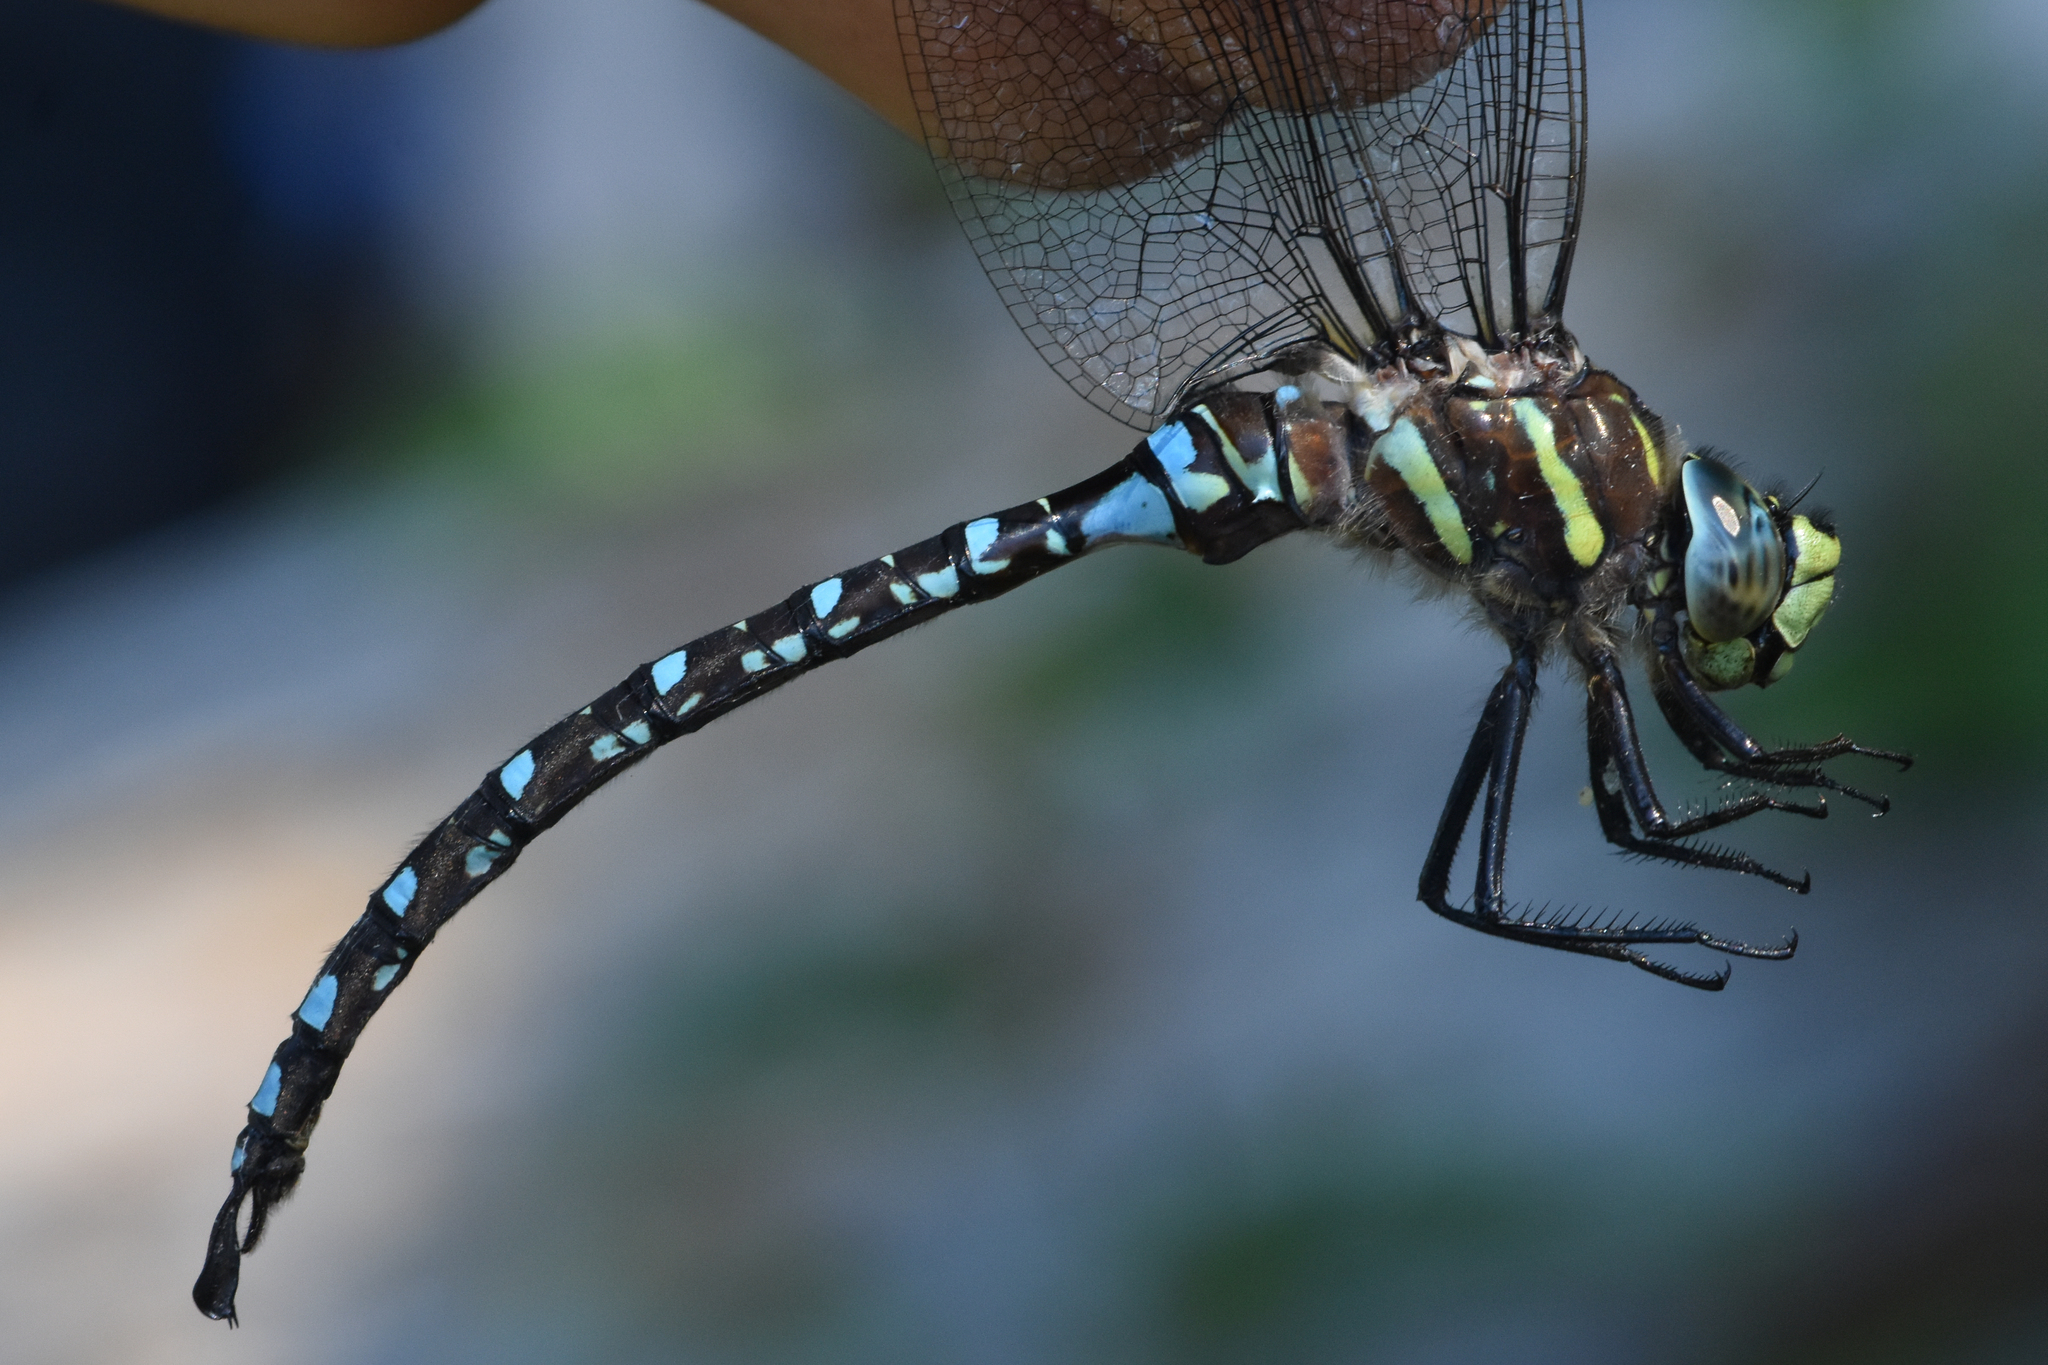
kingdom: Animalia
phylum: Arthropoda
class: Insecta
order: Odonata
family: Aeshnidae
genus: Aeshna
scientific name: Aeshna palmata
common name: Paddle-tailed darner
